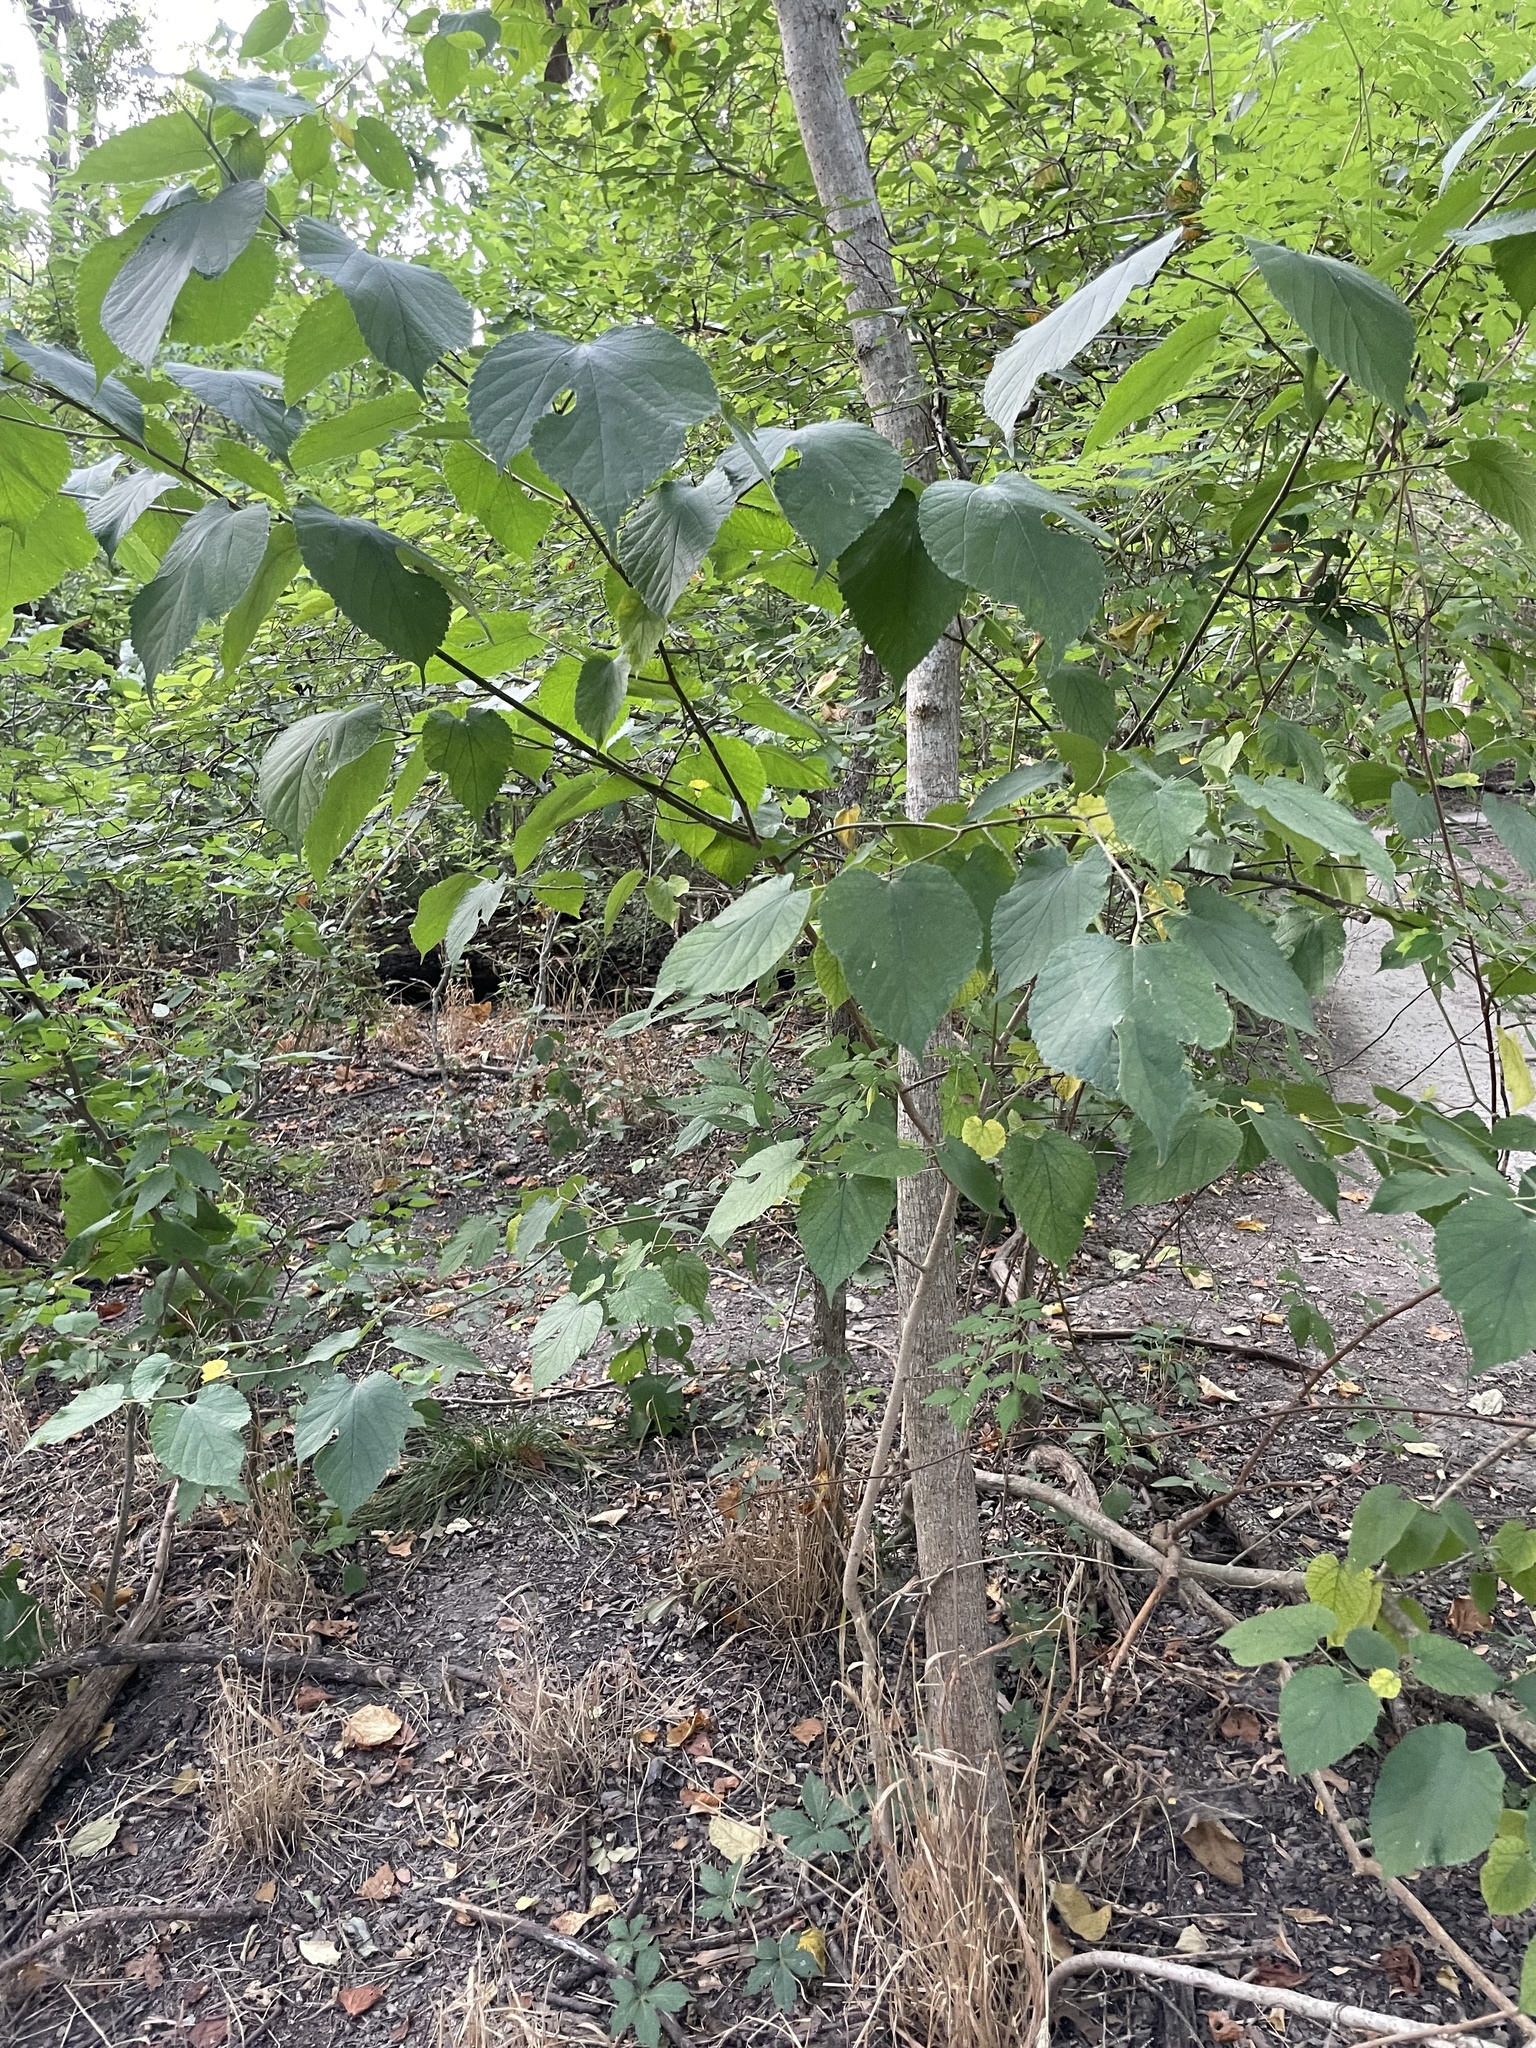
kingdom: Plantae
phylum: Tracheophyta
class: Magnoliopsida
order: Rosales
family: Moraceae
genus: Morus
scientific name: Morus rubra
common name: Red mulberry
